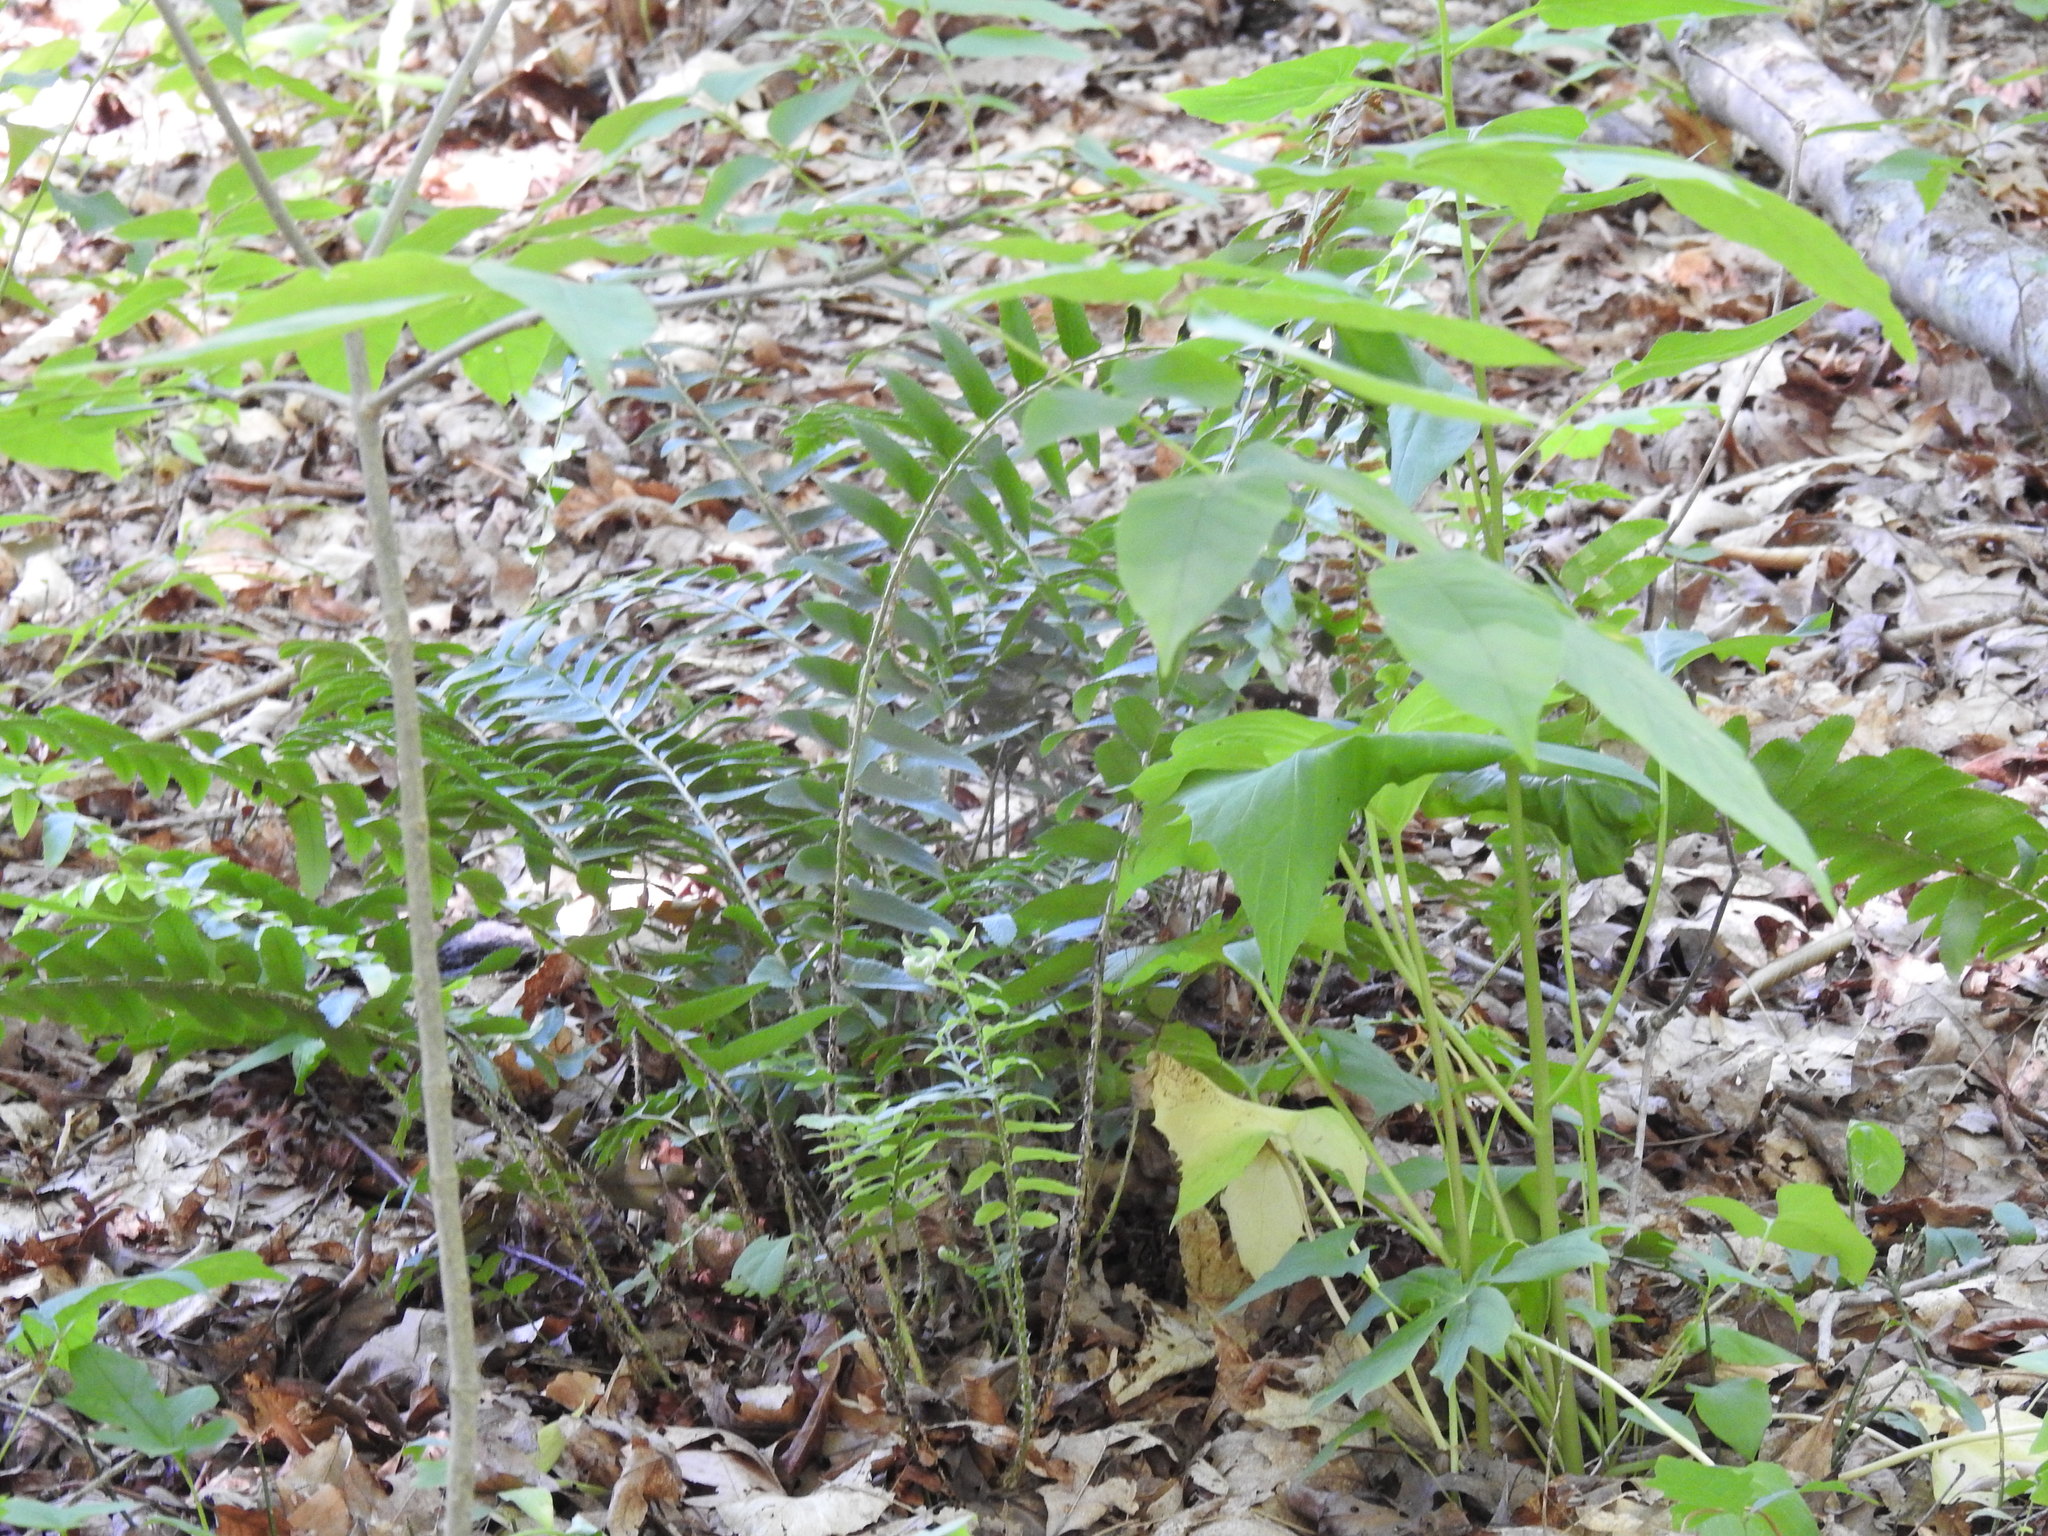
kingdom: Plantae
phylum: Tracheophyta
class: Polypodiopsida
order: Polypodiales
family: Dryopteridaceae
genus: Polystichum
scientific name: Polystichum acrostichoides
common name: Christmas fern
